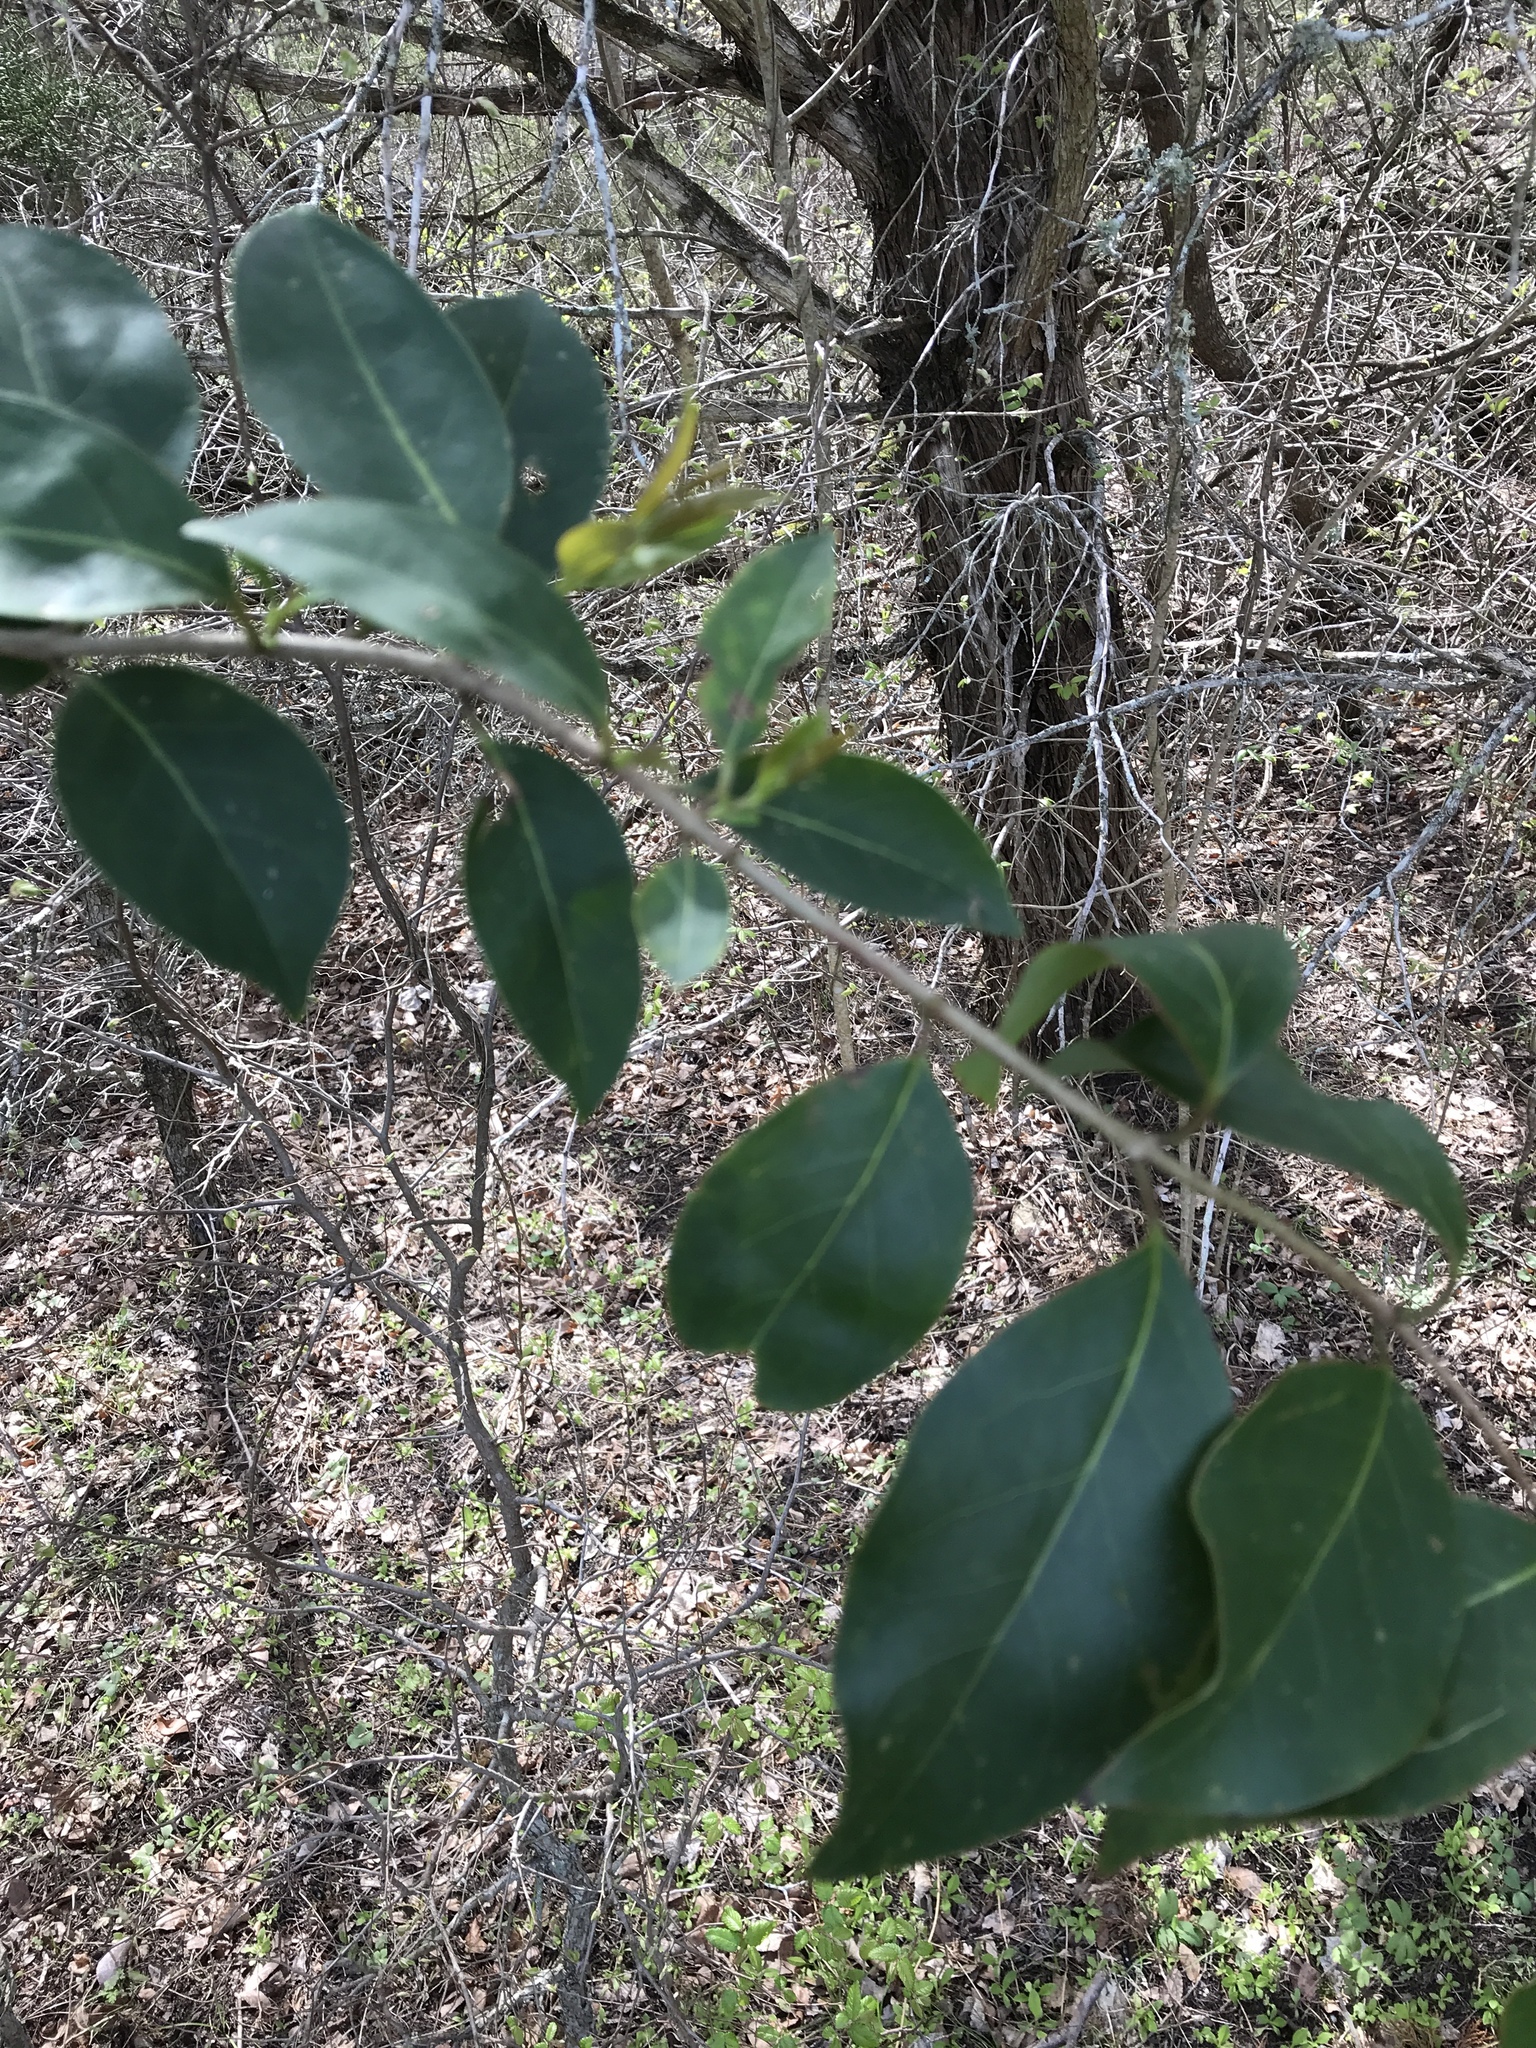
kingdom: Plantae
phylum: Tracheophyta
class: Magnoliopsida
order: Lamiales
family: Oleaceae
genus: Ligustrum
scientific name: Ligustrum lucidum
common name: Glossy privet
